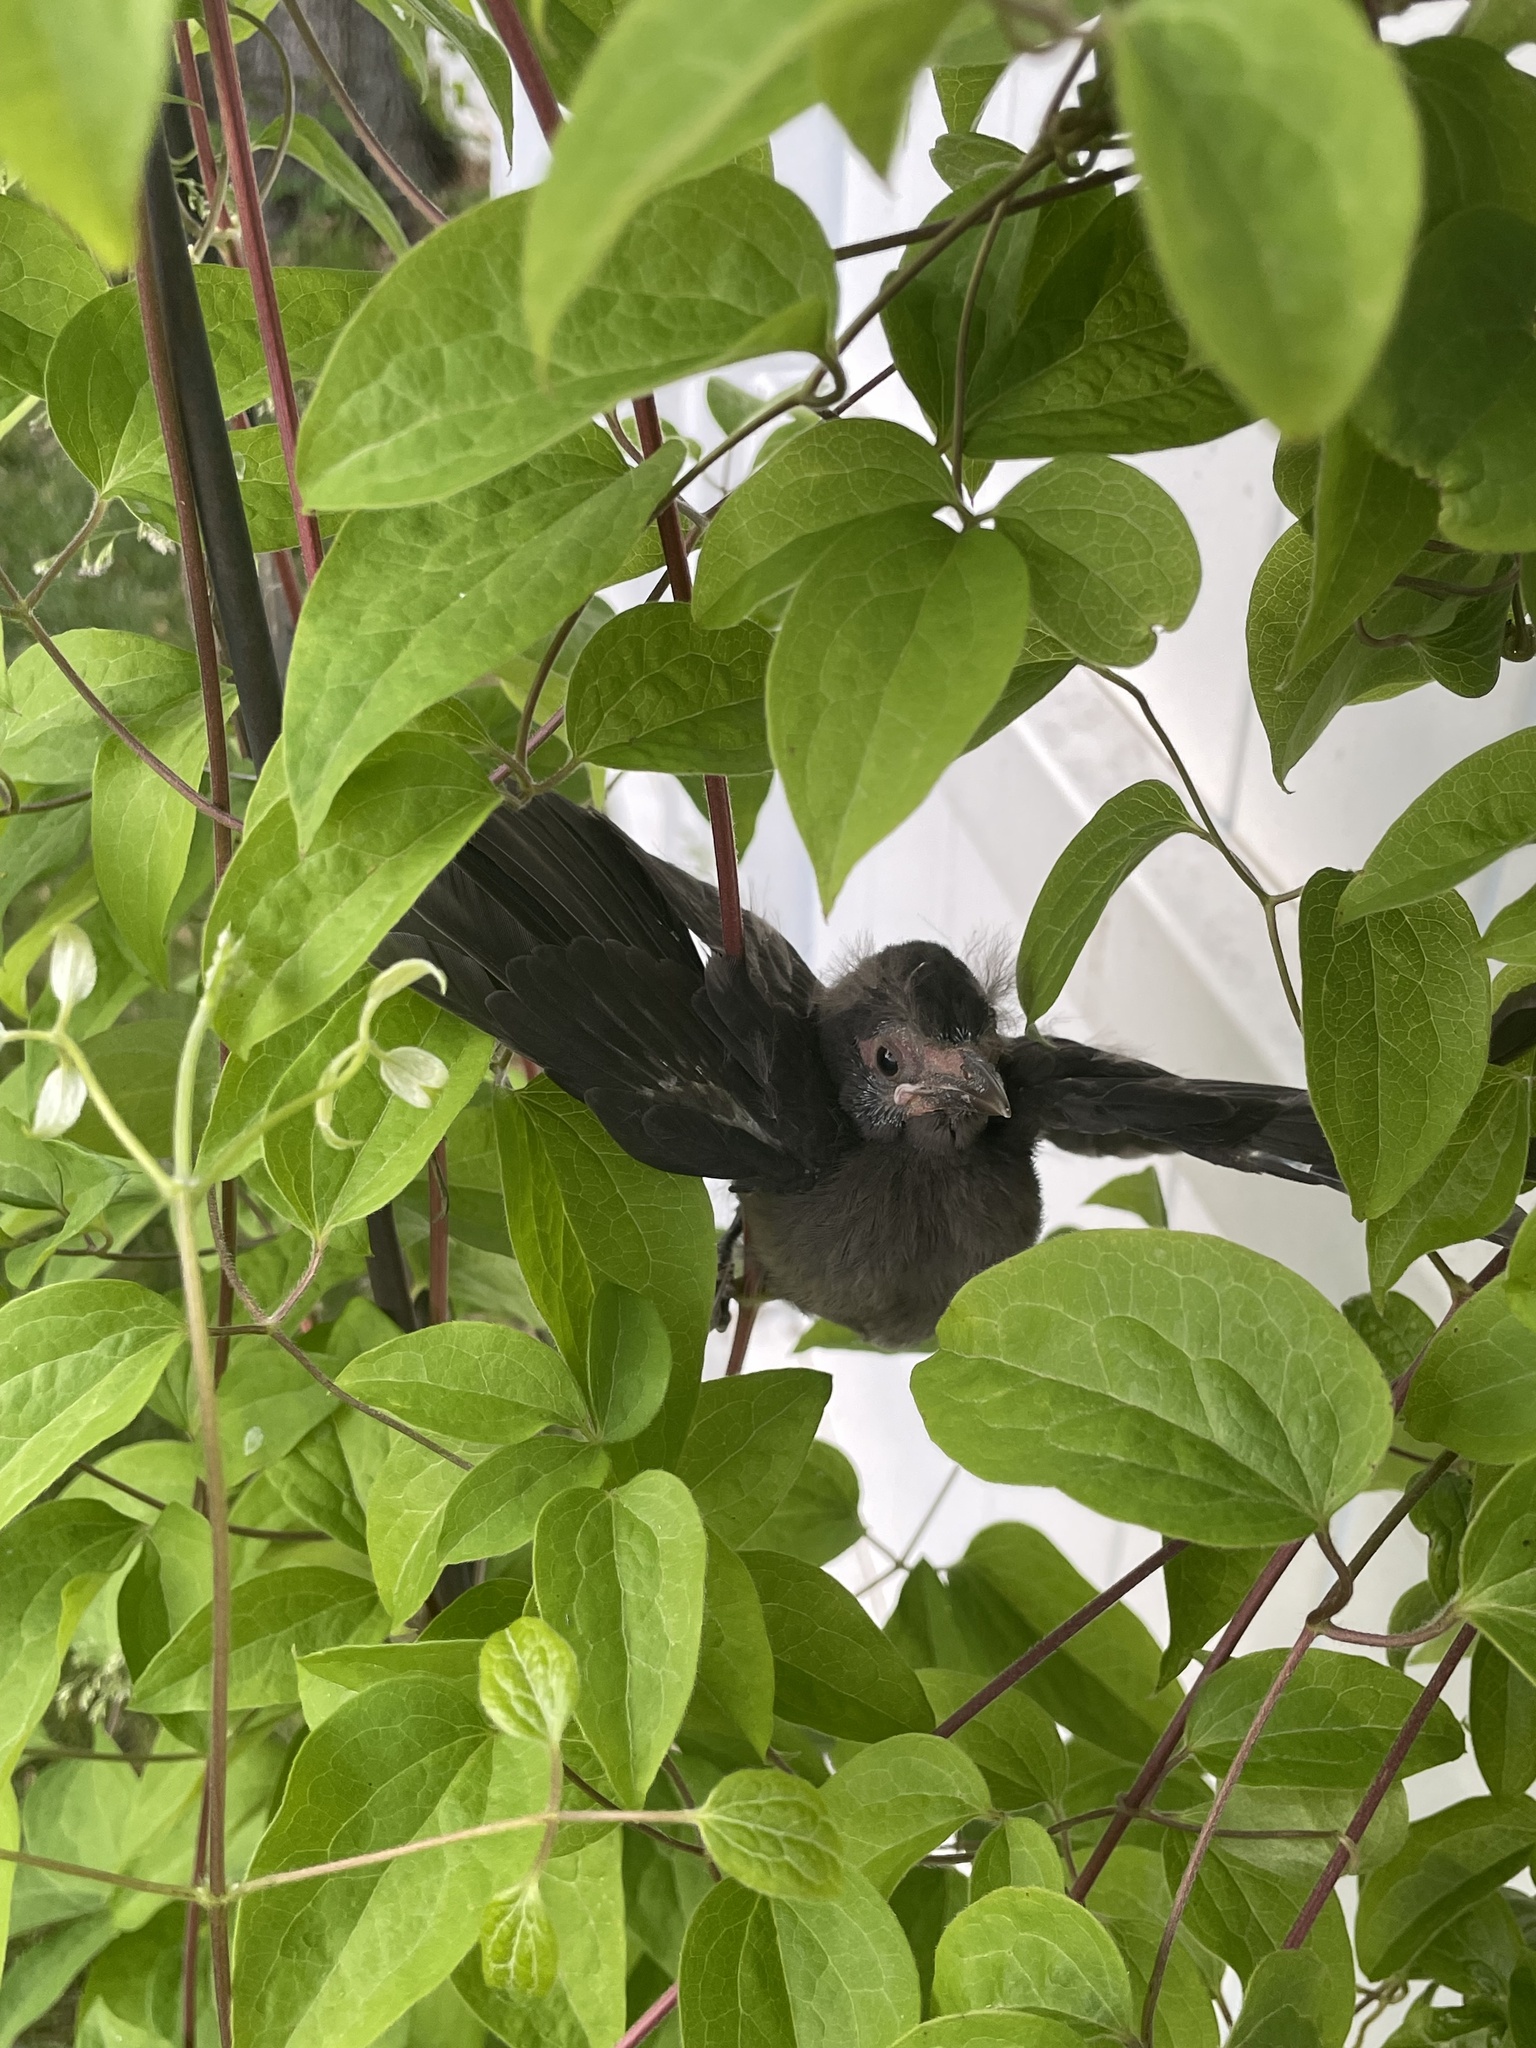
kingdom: Animalia
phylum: Chordata
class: Aves
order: Passeriformes
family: Icteridae
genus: Quiscalus
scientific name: Quiscalus quiscula
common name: Common grackle
